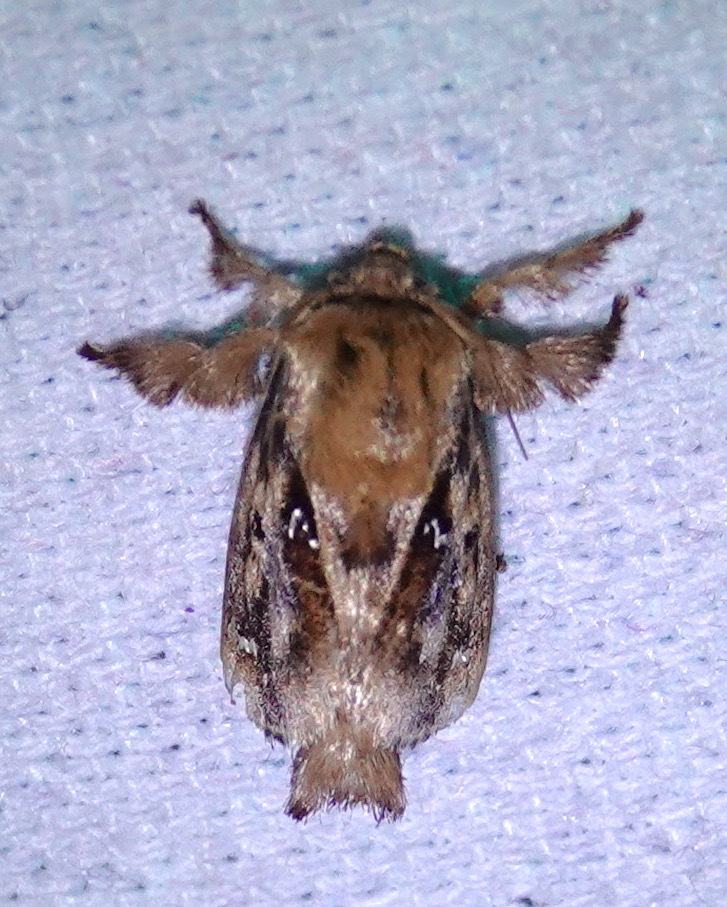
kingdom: Animalia
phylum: Arthropoda
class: Insecta
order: Lepidoptera
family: Limacodidae
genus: Euclea
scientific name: Euclea buscki
